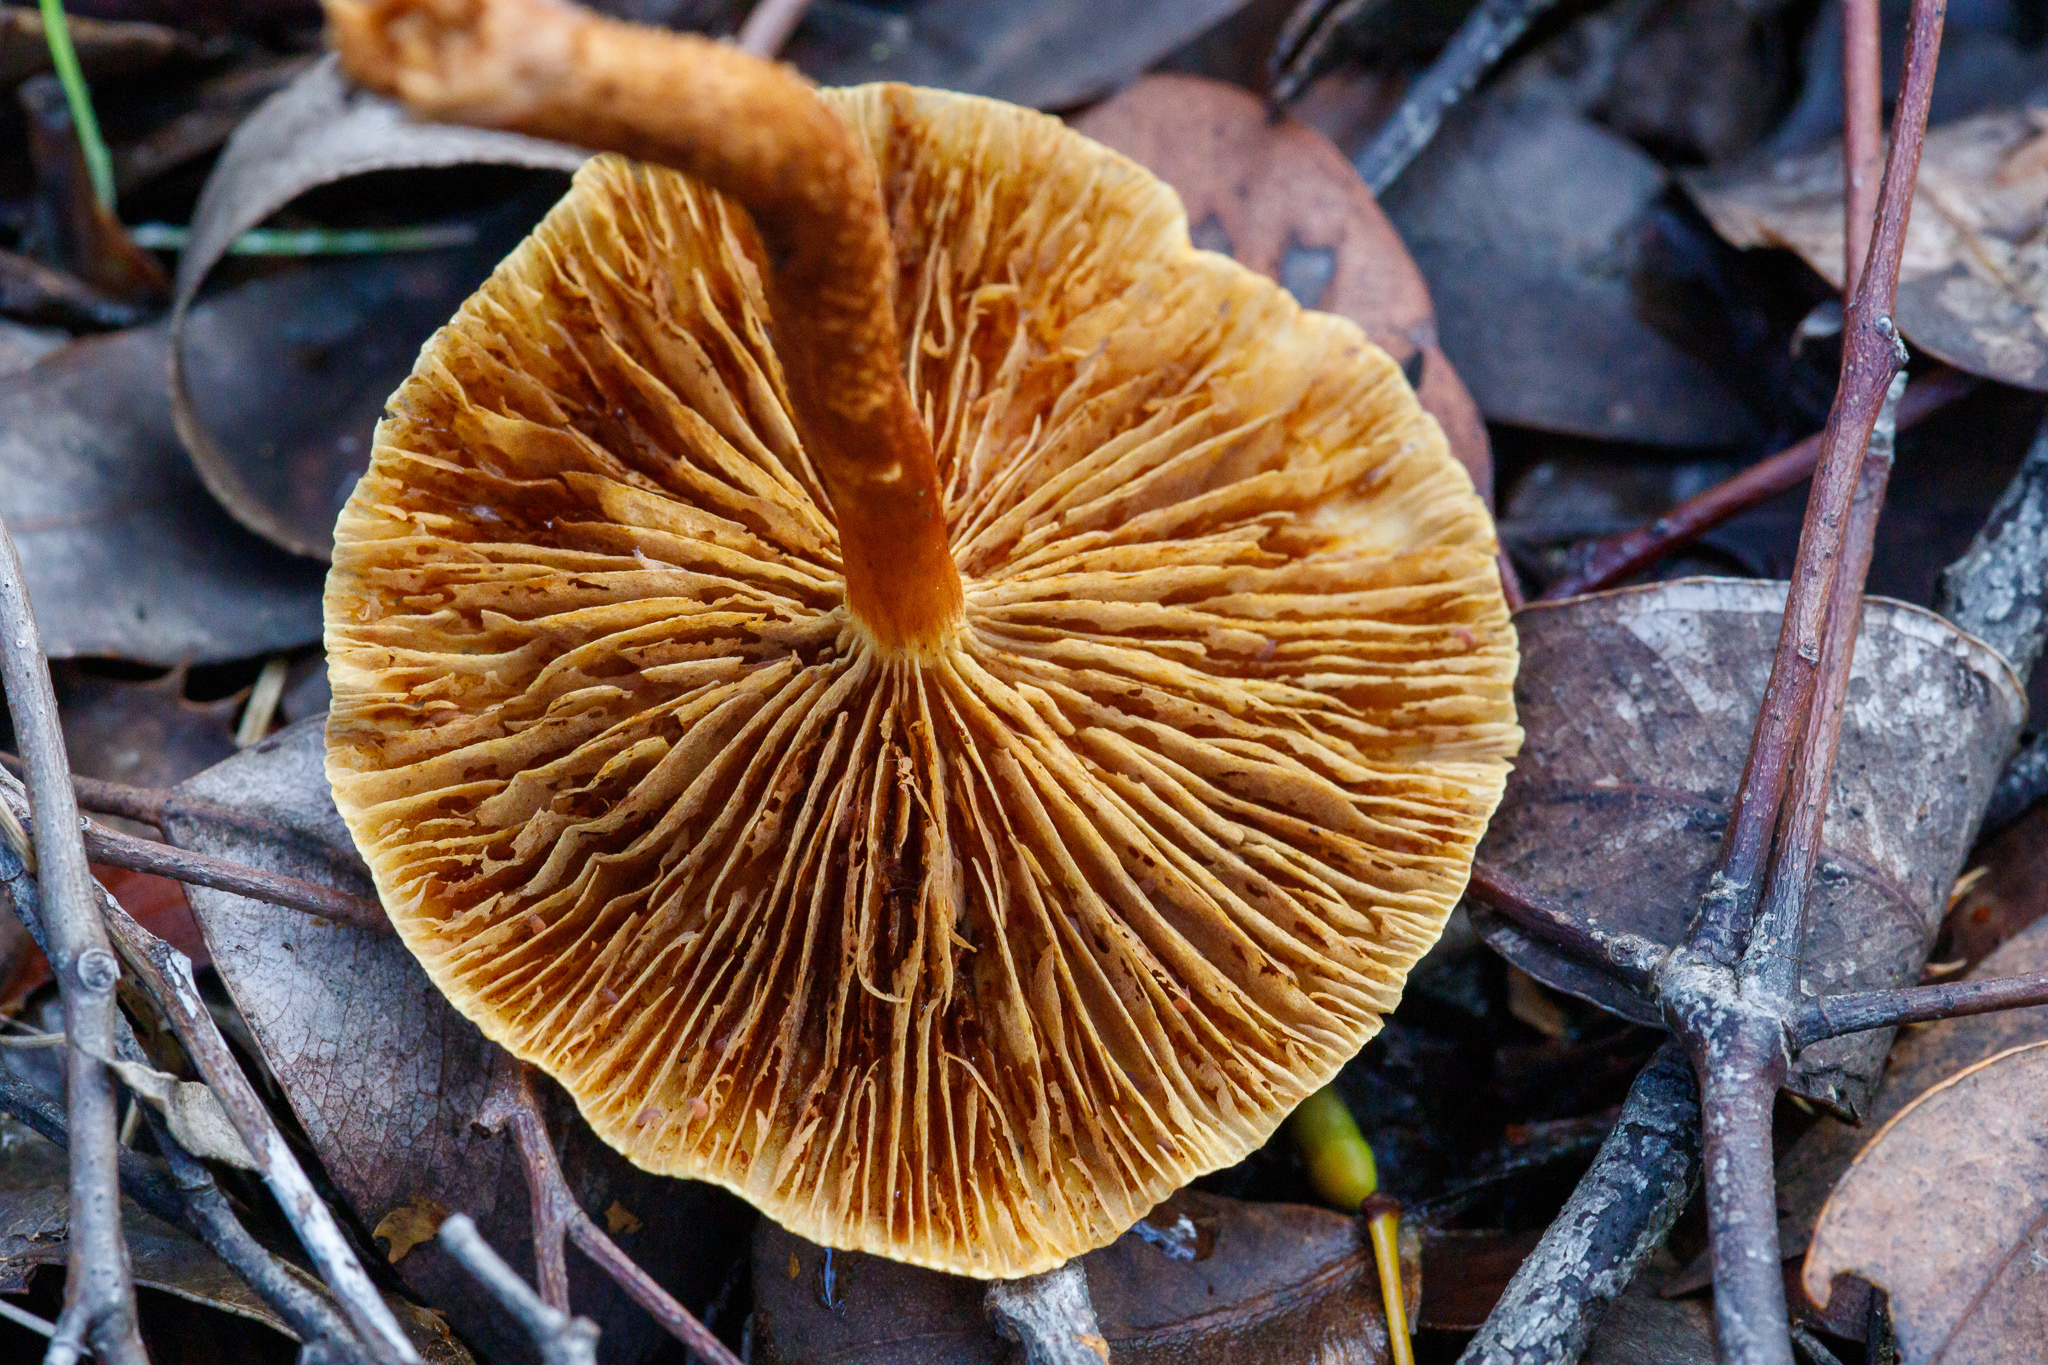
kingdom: Fungi
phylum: Basidiomycota
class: Agaricomycetes
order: Agaricales
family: Strophariaceae
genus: Pholiota
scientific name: Pholiota communis
